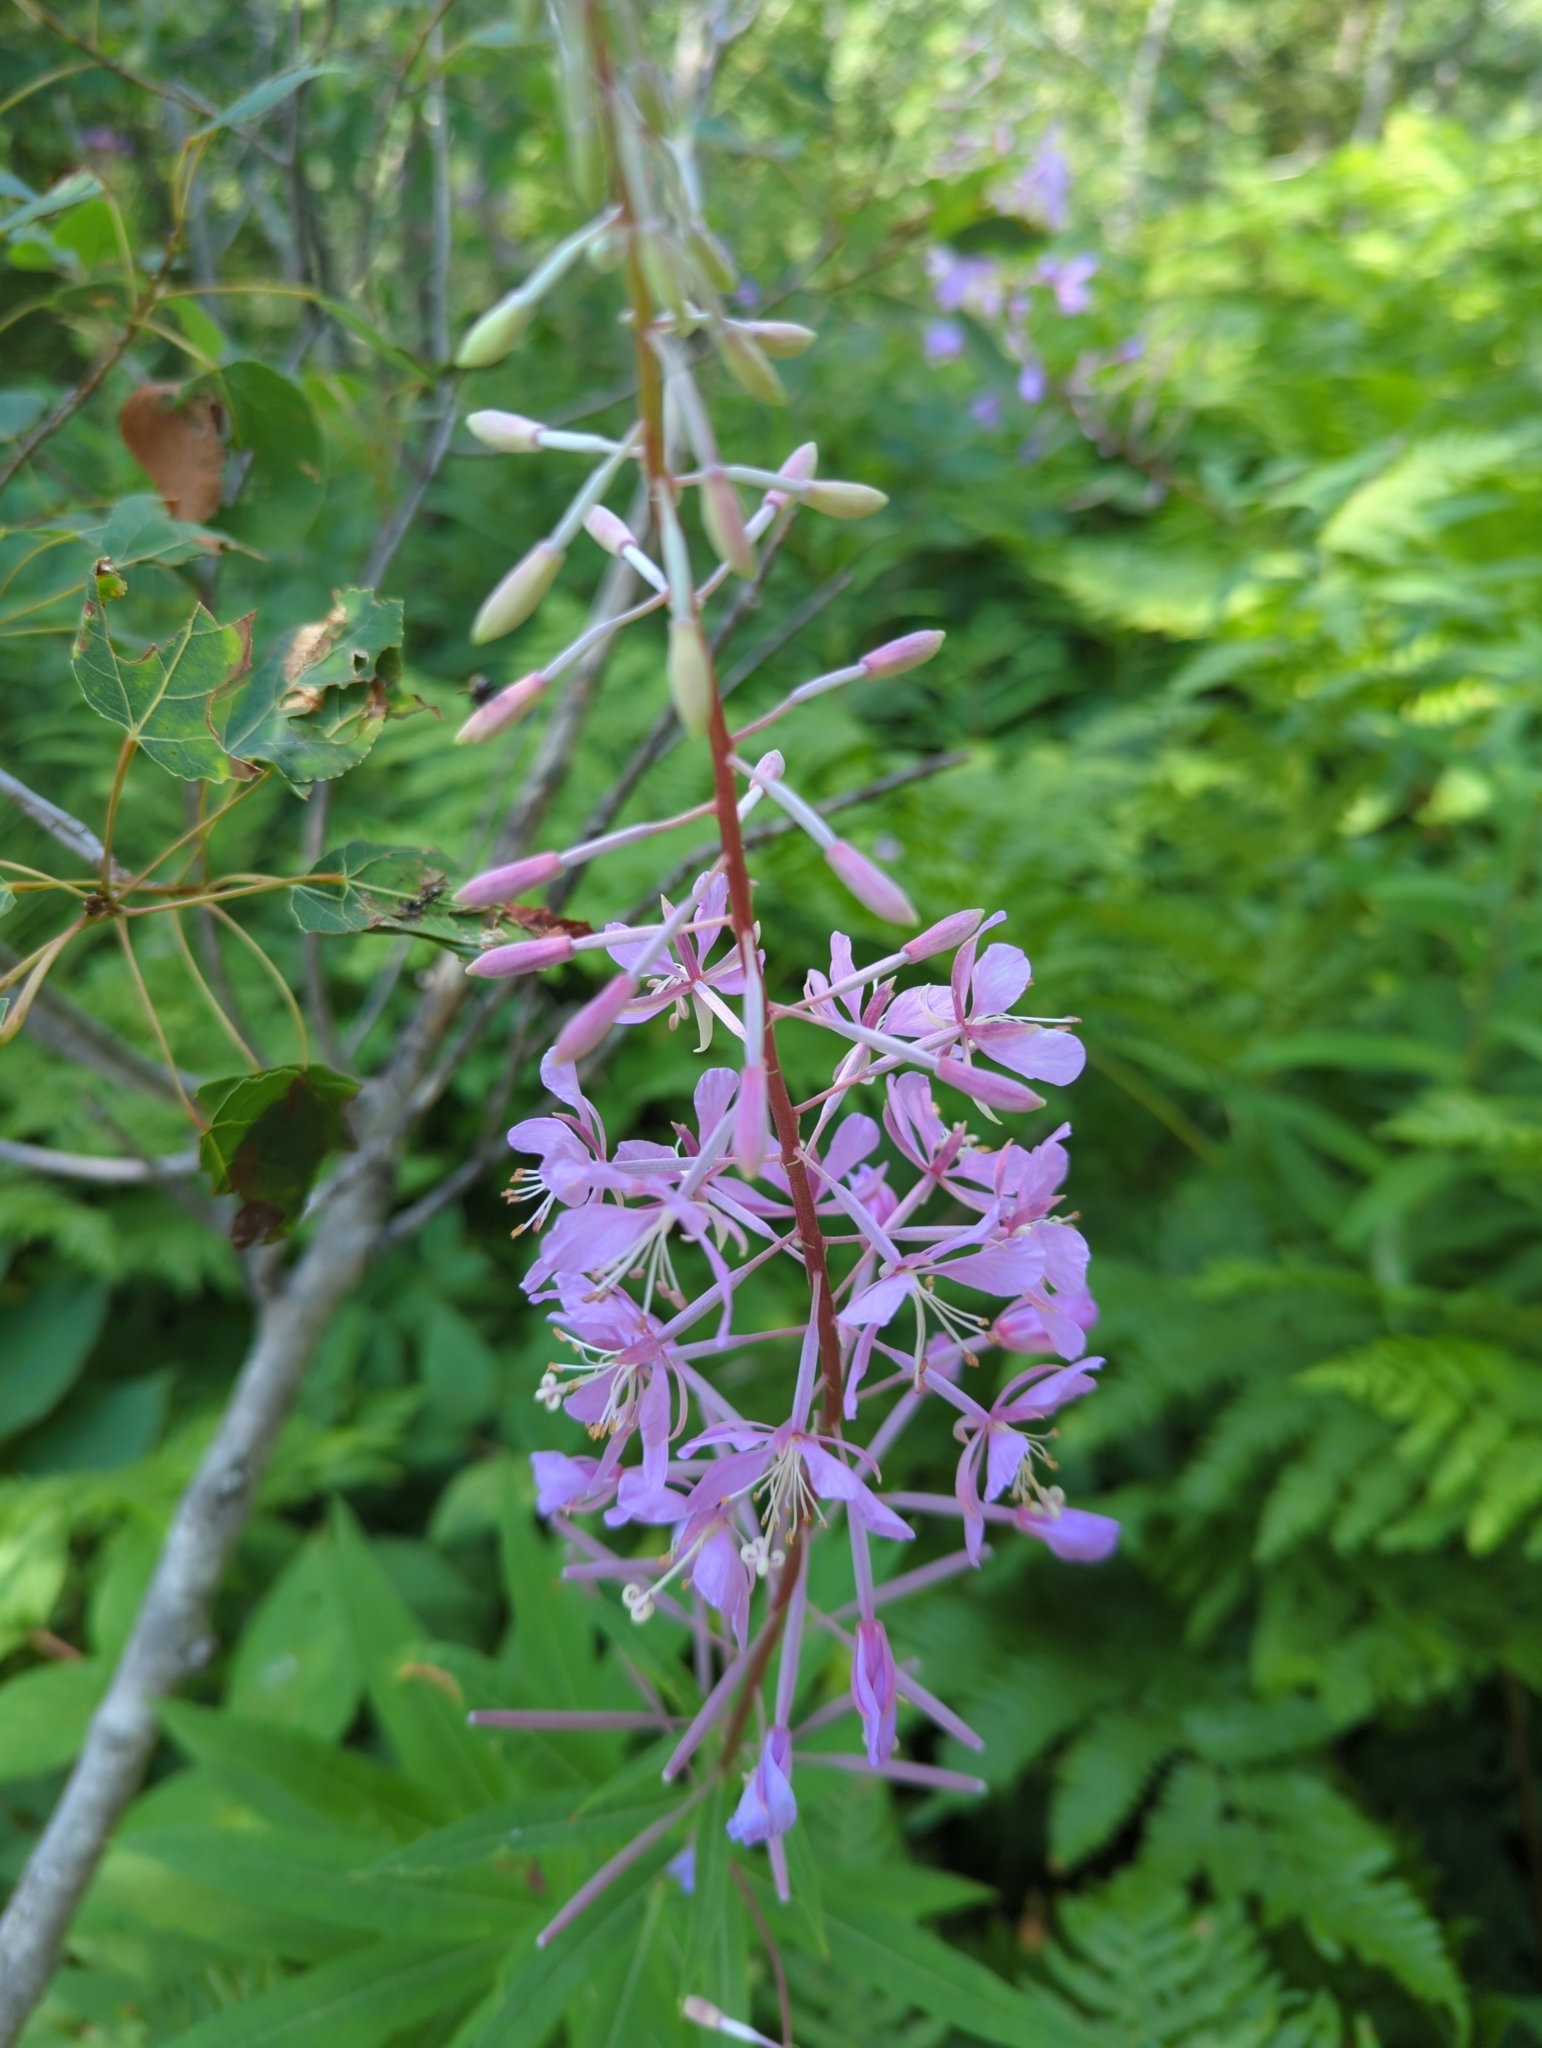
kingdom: Plantae
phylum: Tracheophyta
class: Magnoliopsida
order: Myrtales
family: Onagraceae
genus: Chamaenerion
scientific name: Chamaenerion angustifolium
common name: Fireweed
